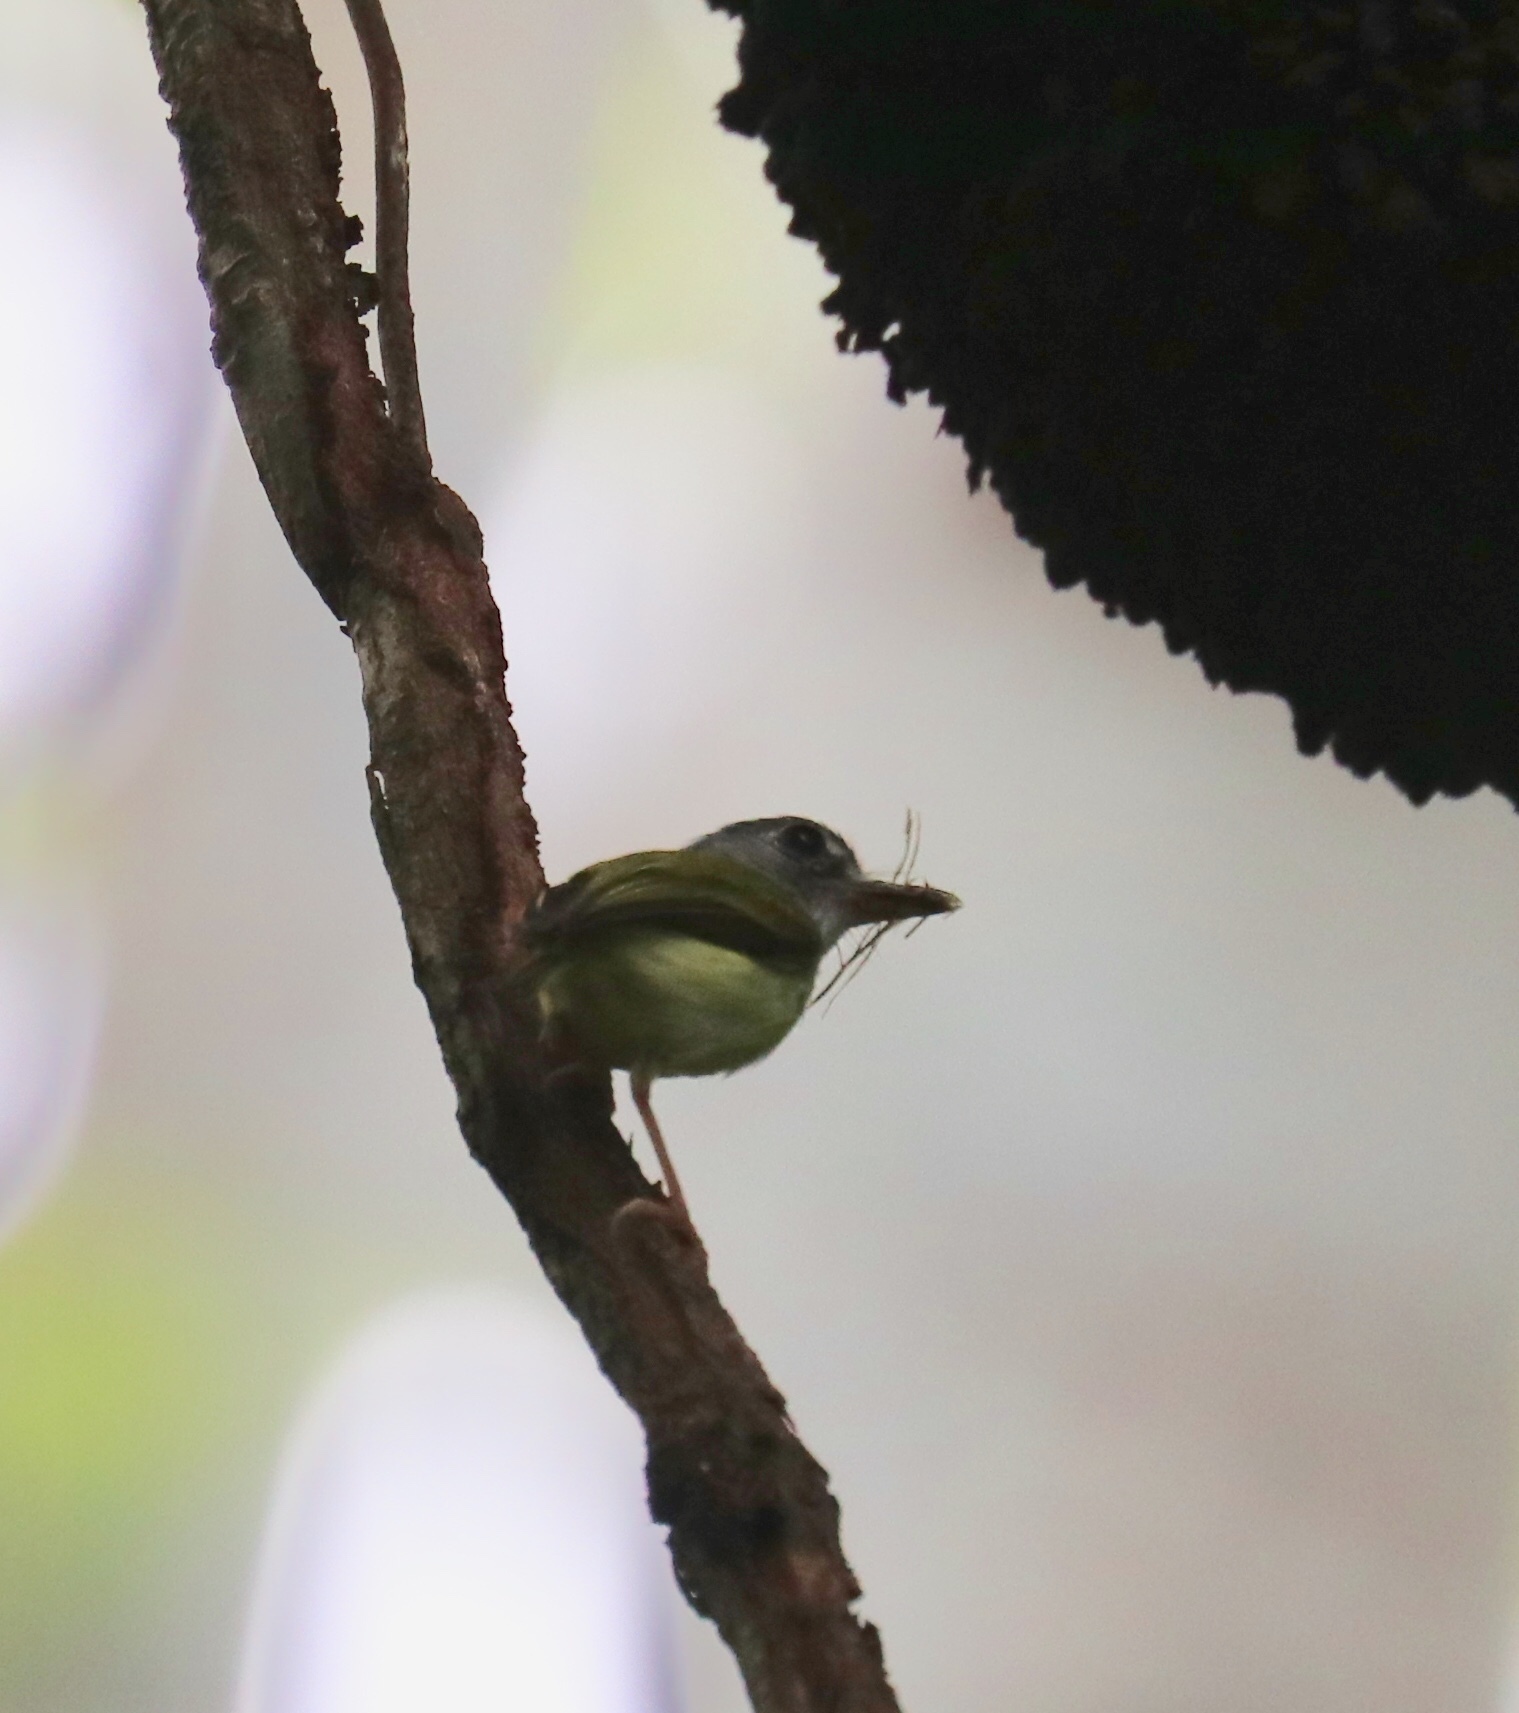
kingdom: Animalia
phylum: Chordata
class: Aves
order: Passeriformes
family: Tyrannidae
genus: Myiornis
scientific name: Myiornis atricapillus
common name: Black-capped pygmy-tyrant
